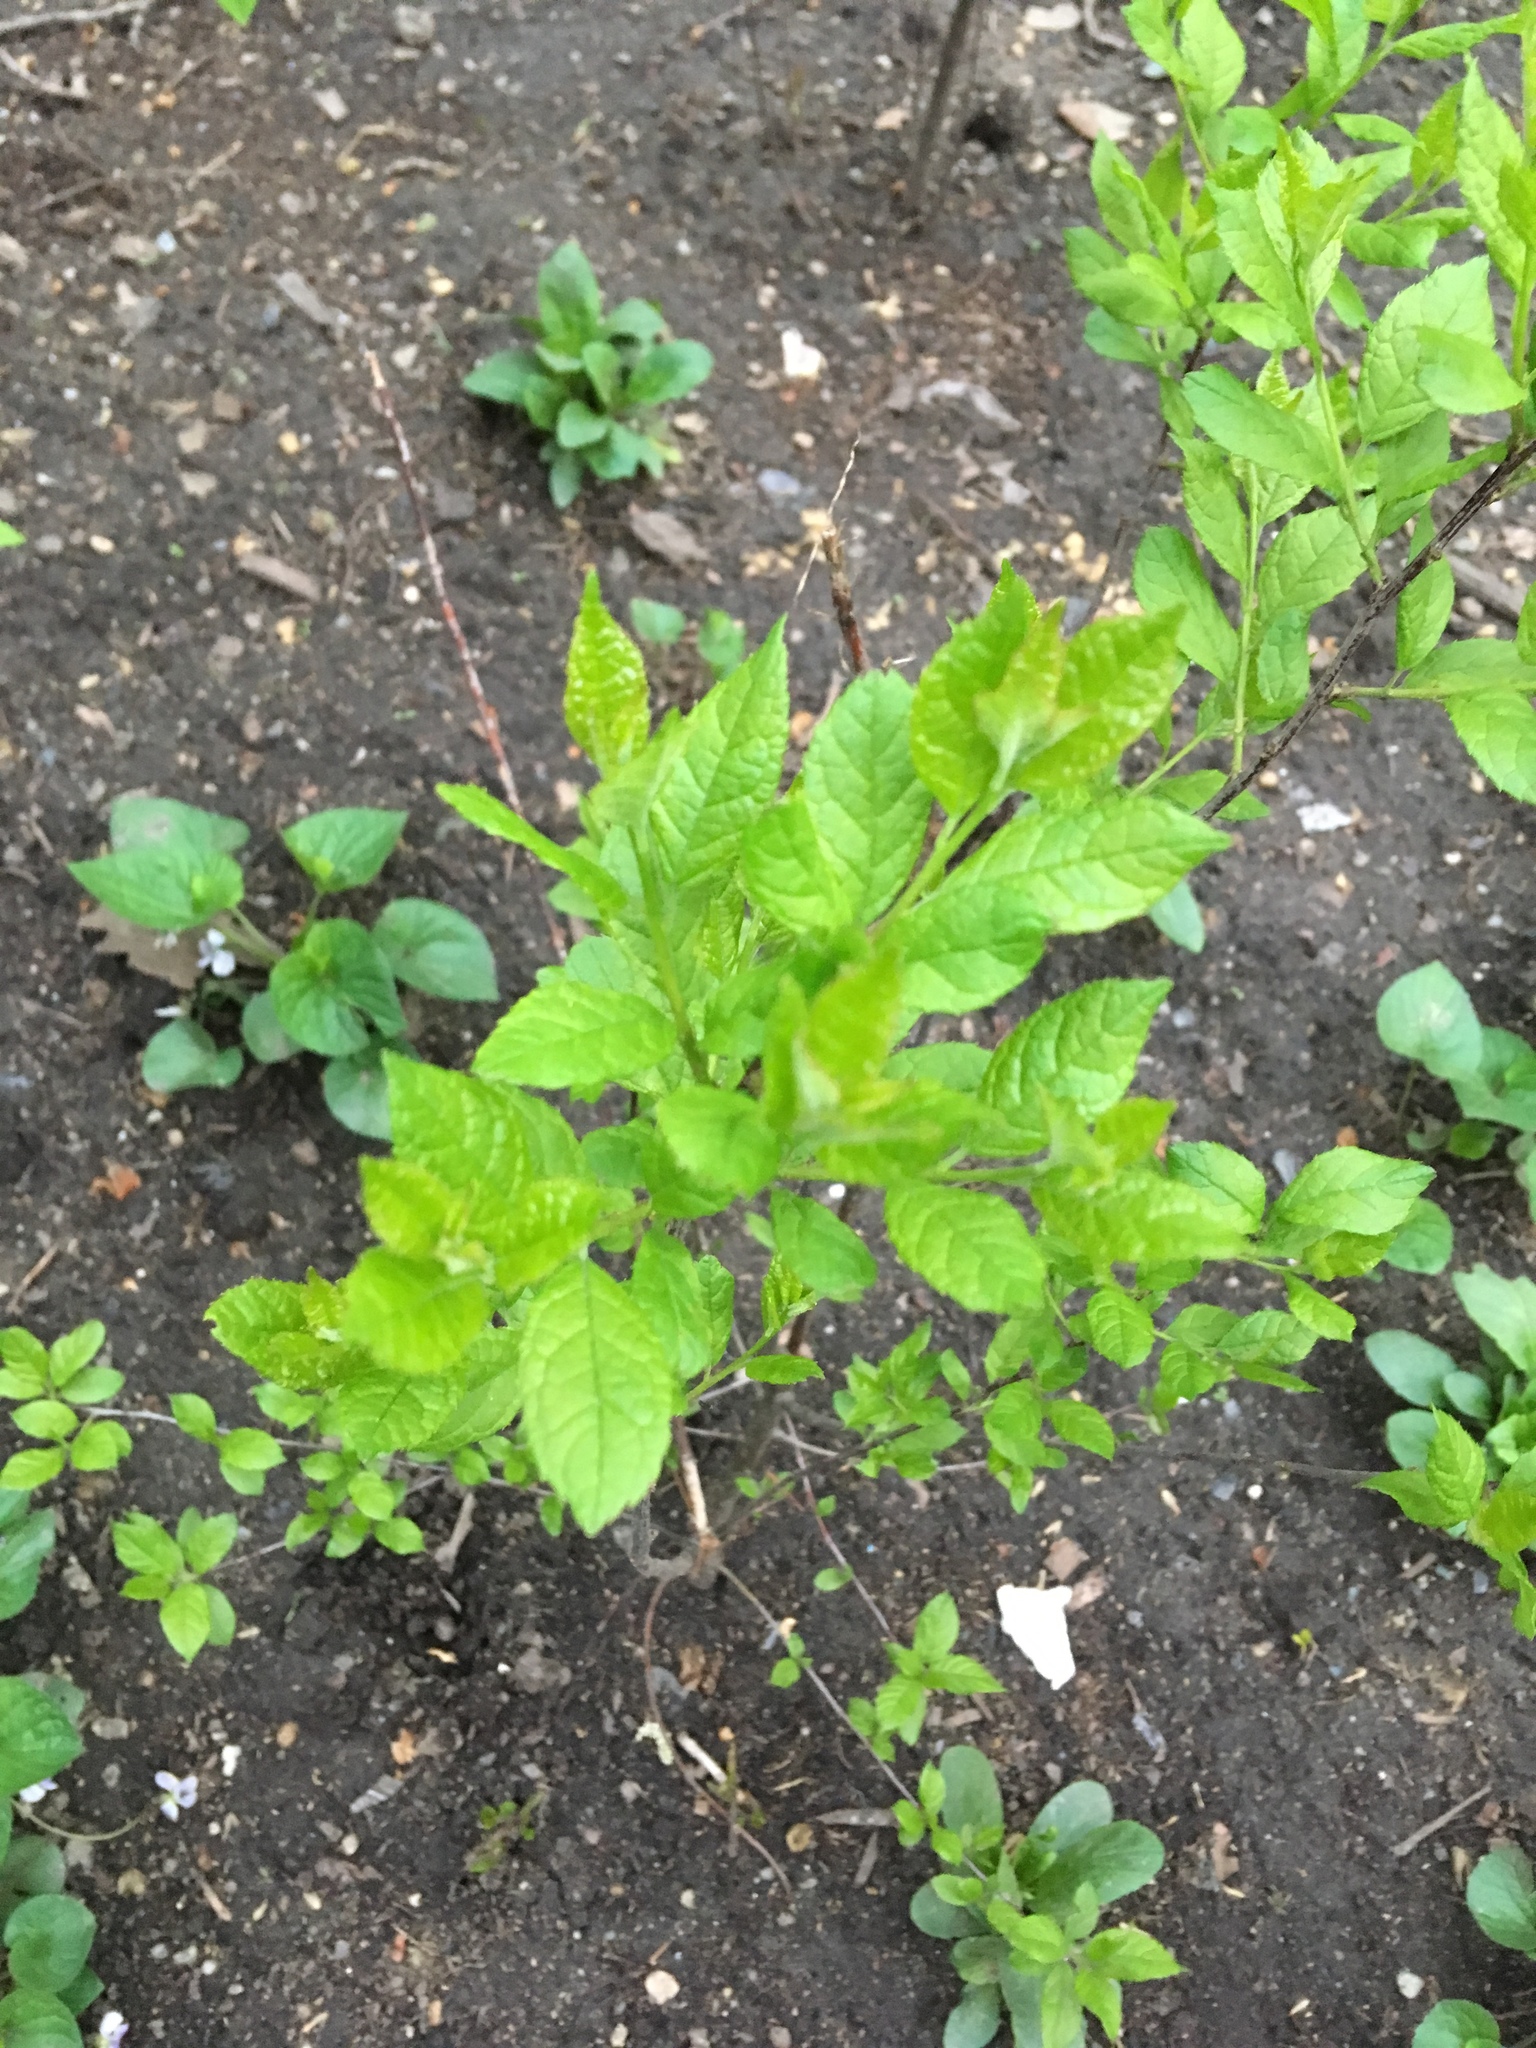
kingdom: Plantae
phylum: Tracheophyta
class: Magnoliopsida
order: Aquifoliales
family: Aquifoliaceae
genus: Ilex
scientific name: Ilex verticillata
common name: Virginia winterberry
